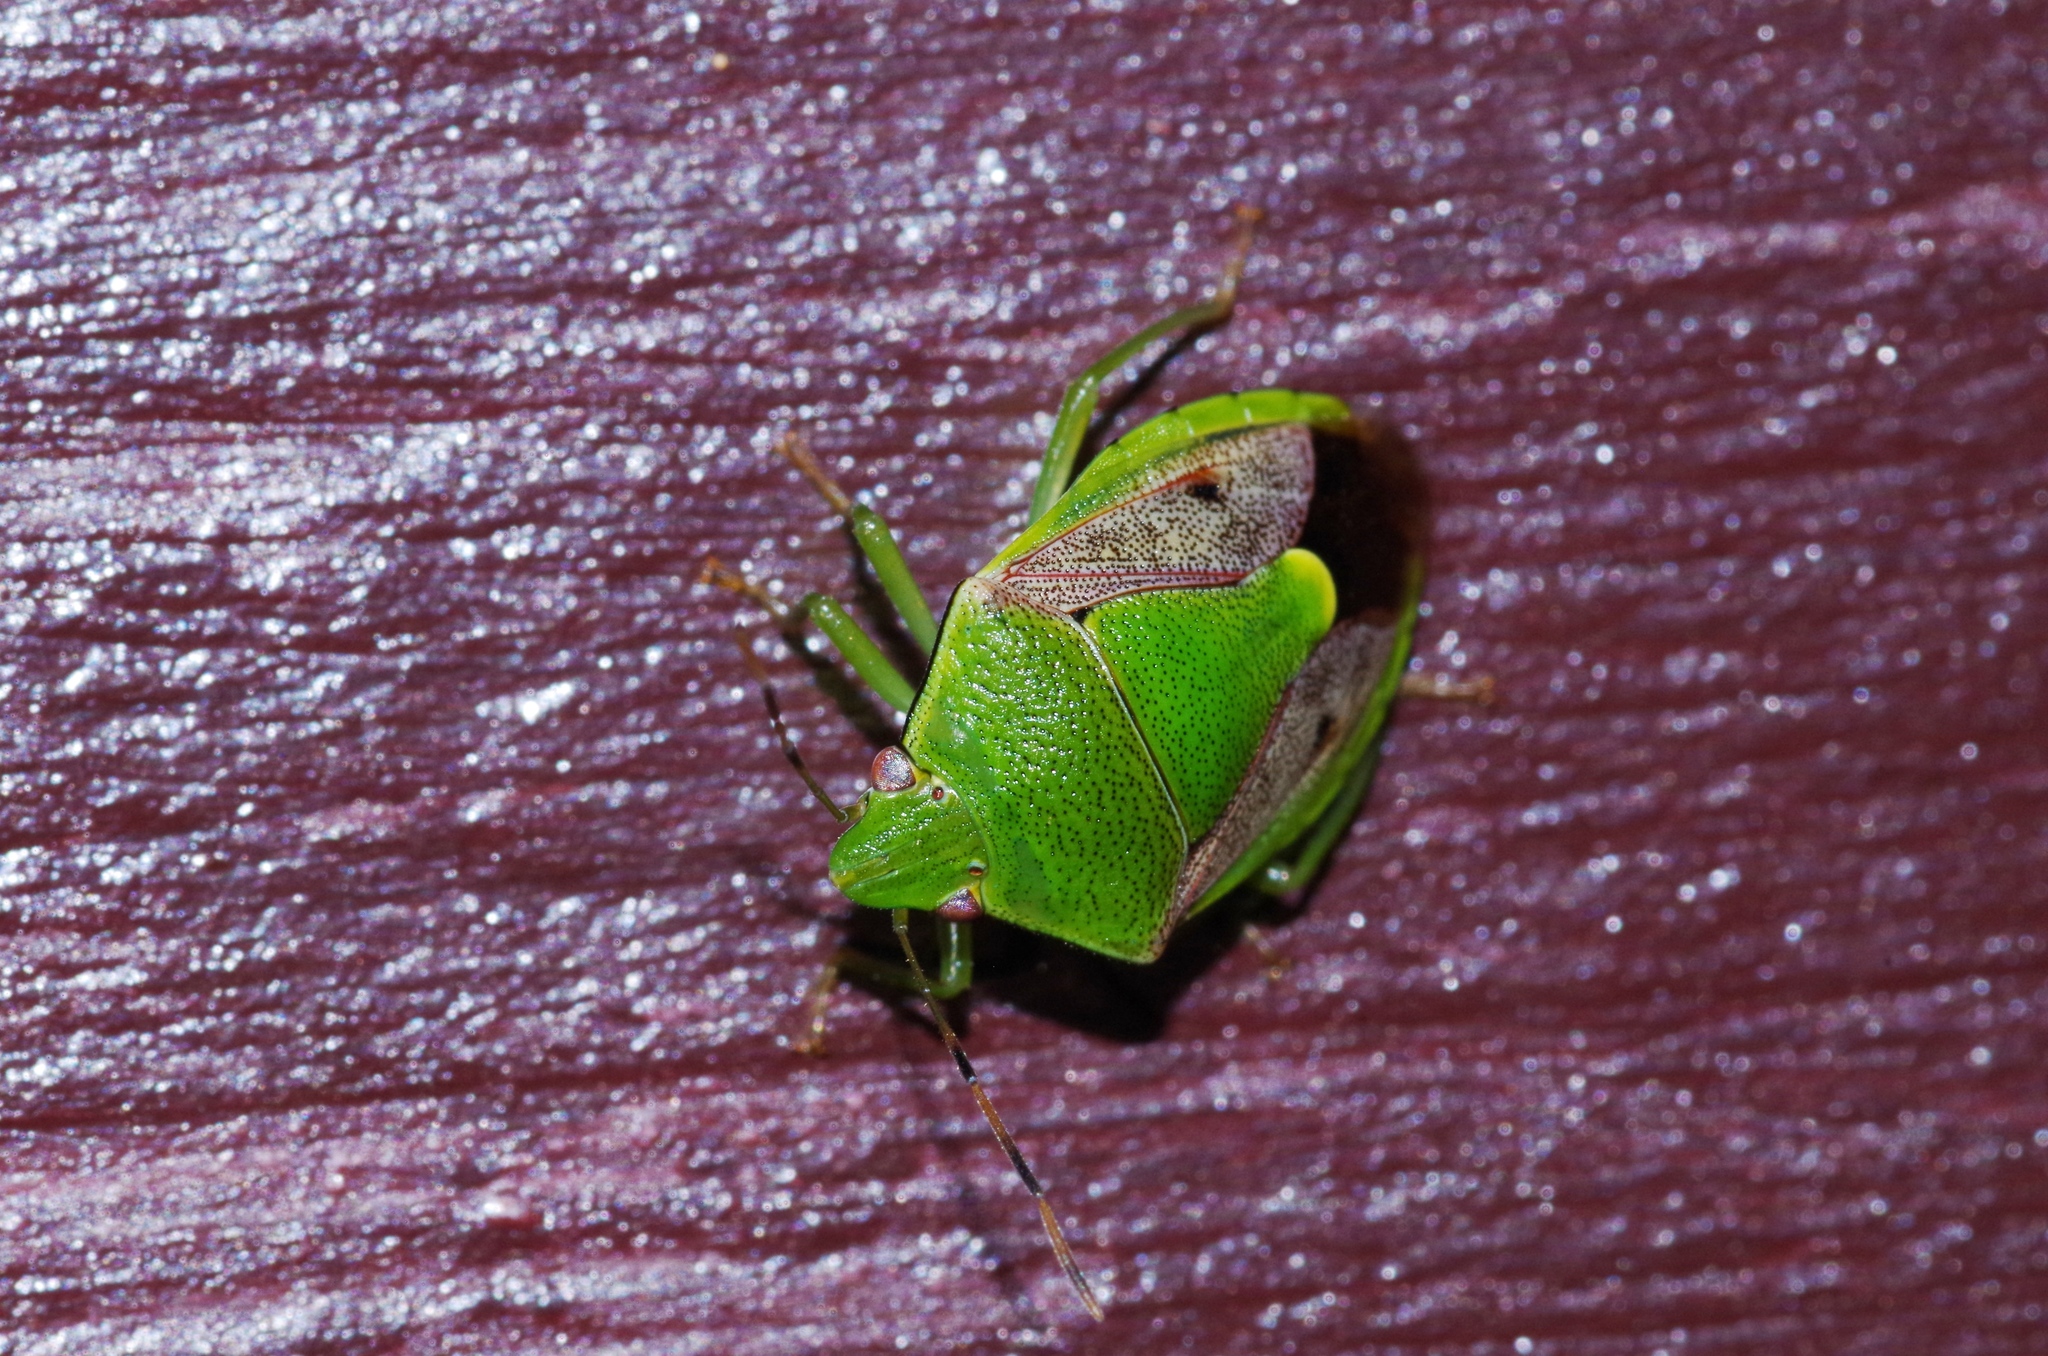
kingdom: Animalia
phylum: Arthropoda
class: Insecta
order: Hemiptera
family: Pentatomidae
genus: Plautia
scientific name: Plautia stali
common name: Stink bug
